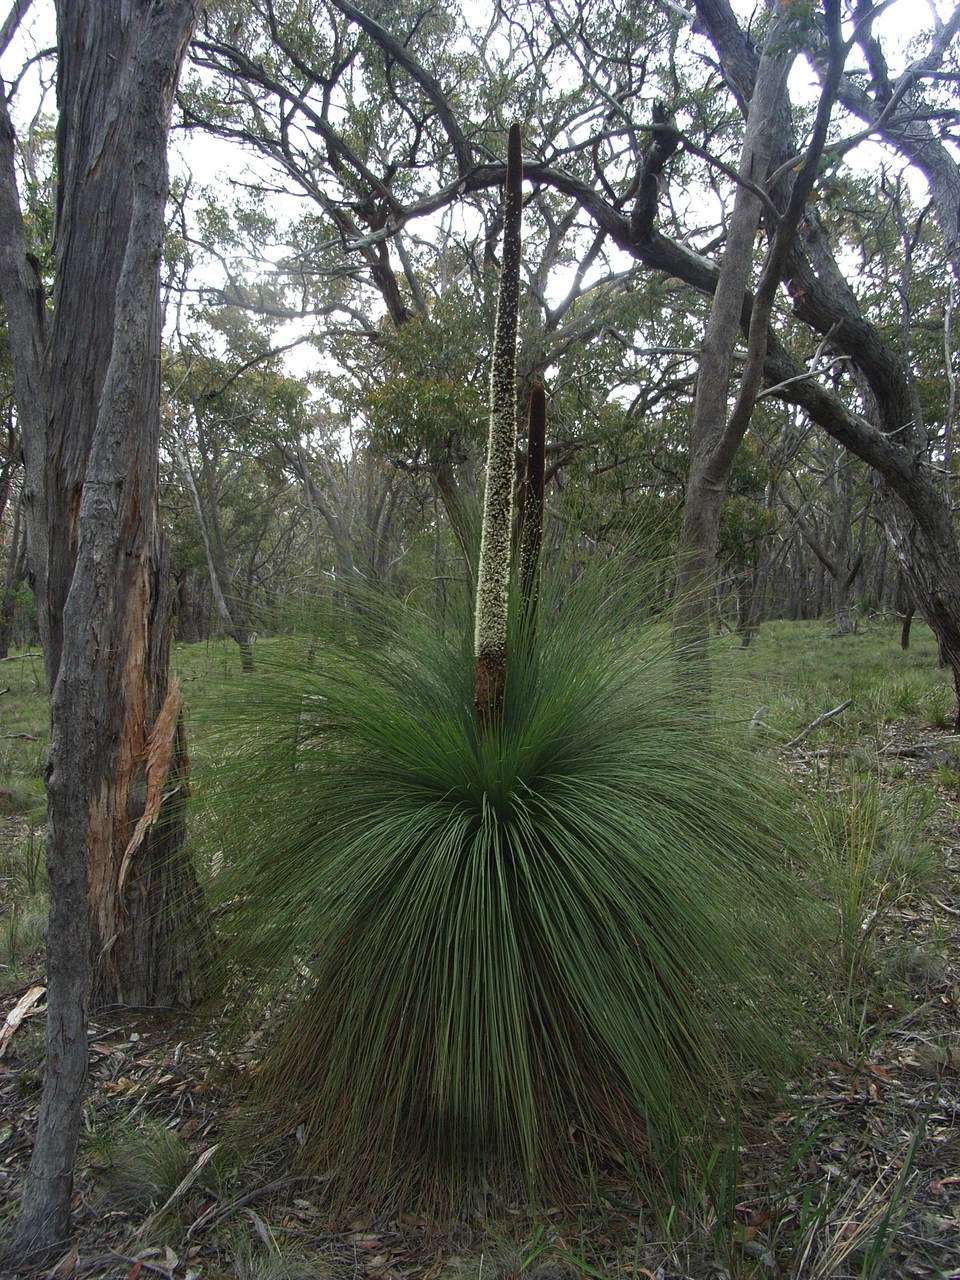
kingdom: Plantae
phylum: Tracheophyta
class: Liliopsida
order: Asparagales
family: Asphodelaceae
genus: Xanthorrhoea
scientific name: Xanthorrhoea australis
